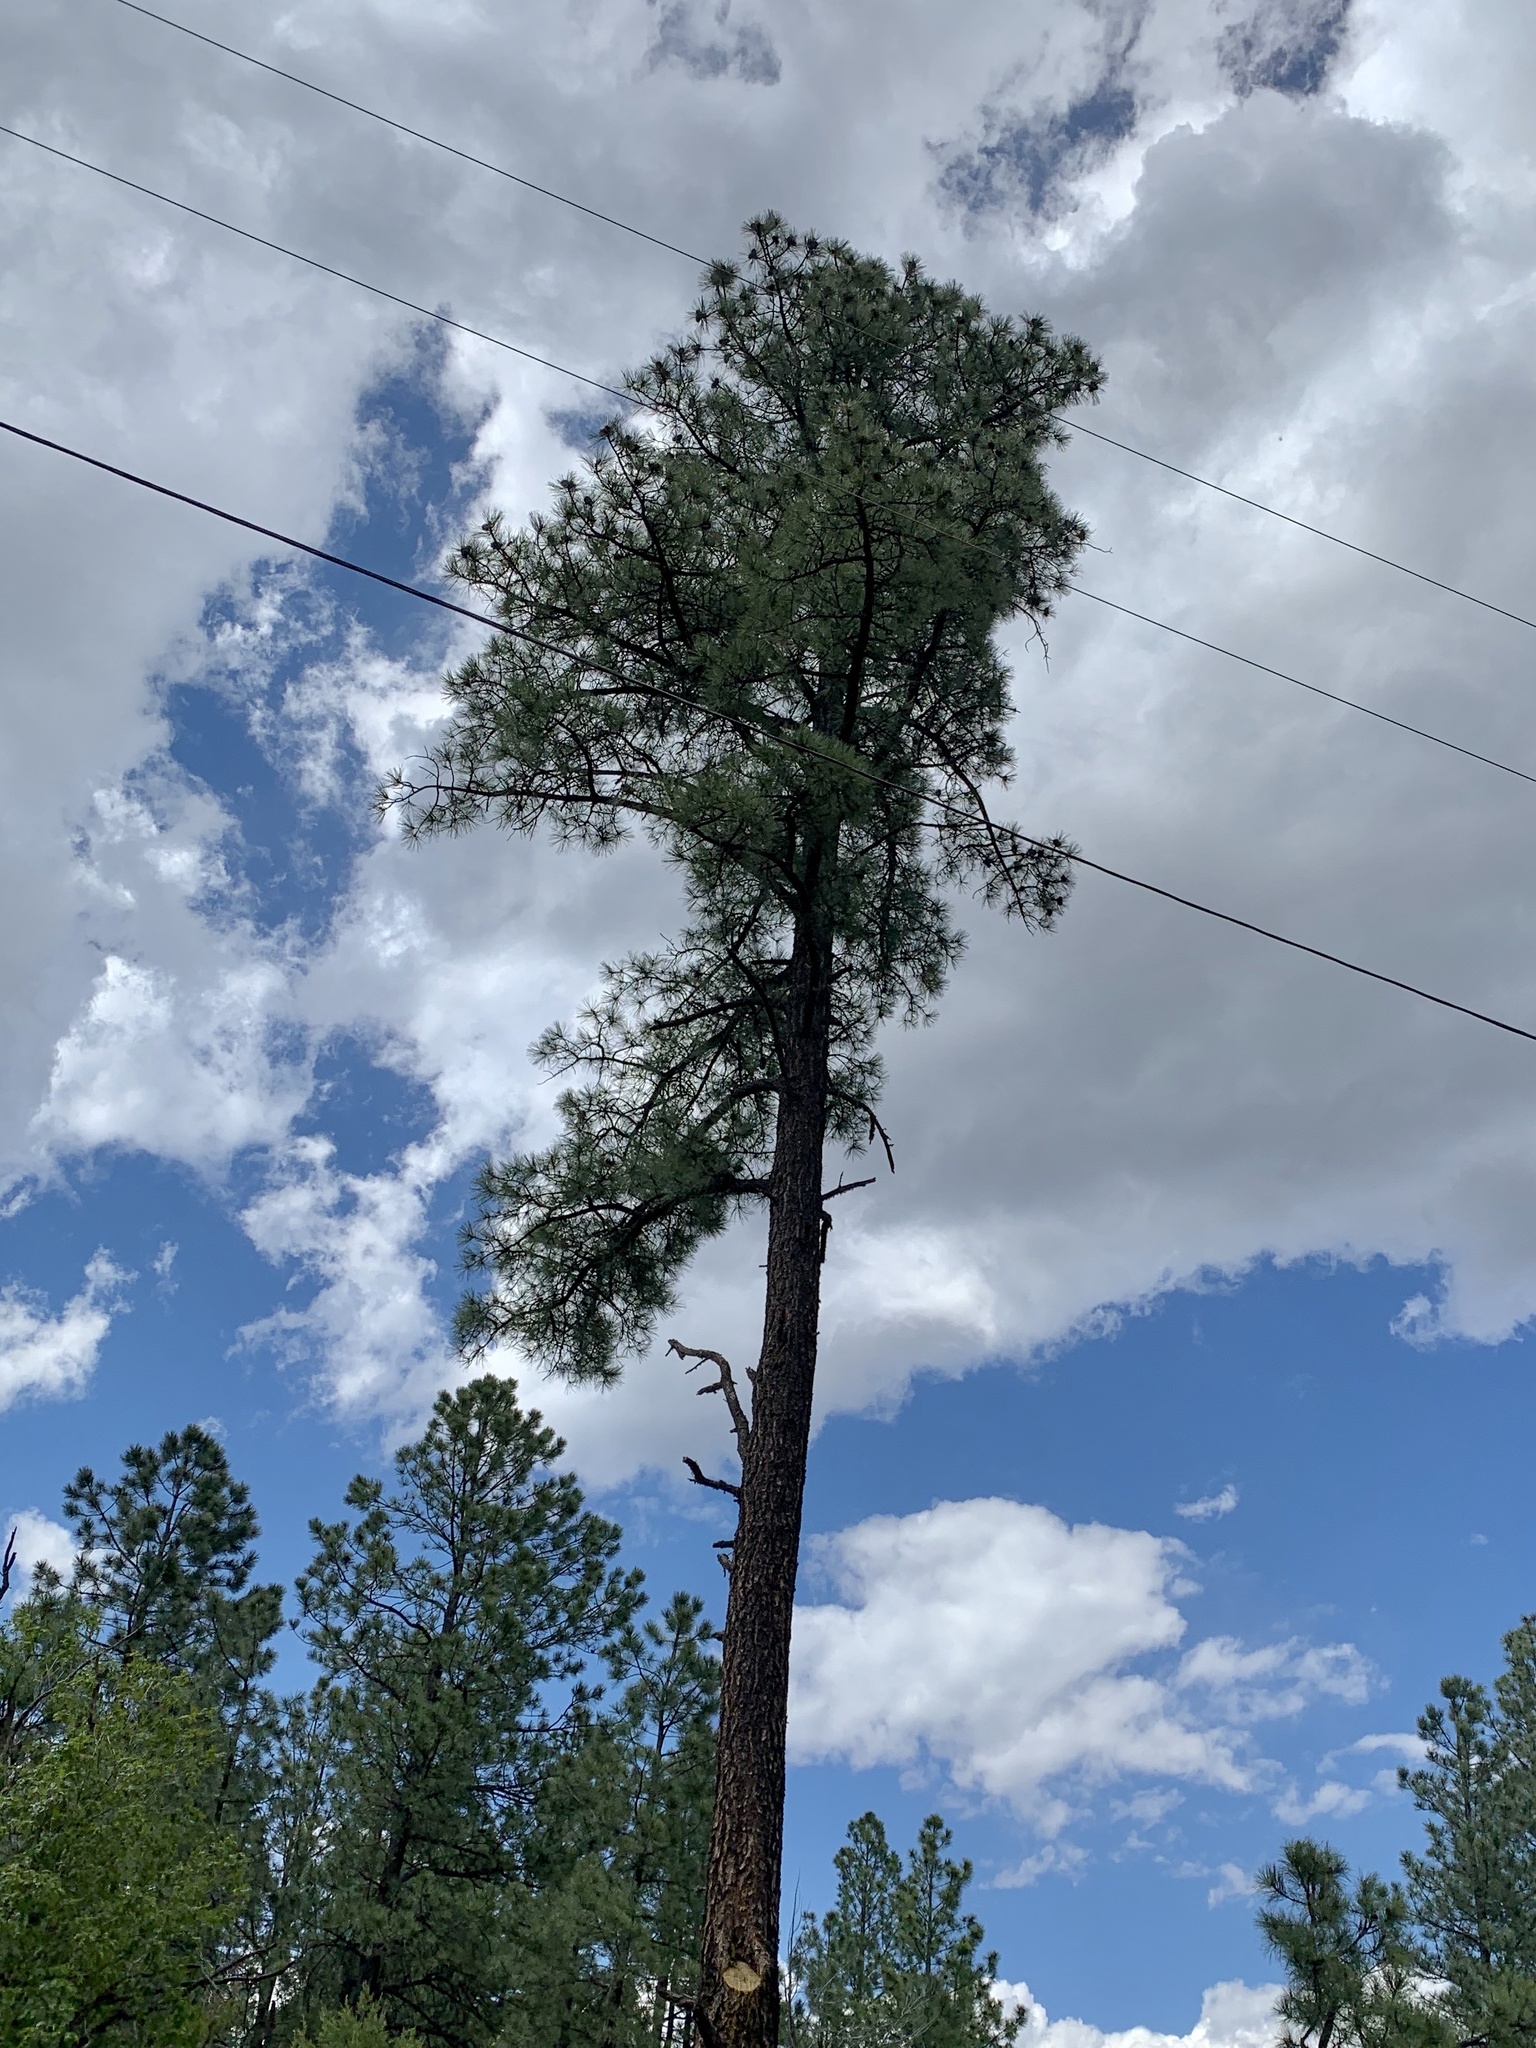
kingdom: Plantae
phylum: Tracheophyta
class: Pinopsida
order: Pinales
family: Pinaceae
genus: Pinus
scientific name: Pinus ponderosa
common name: Western yellow-pine
